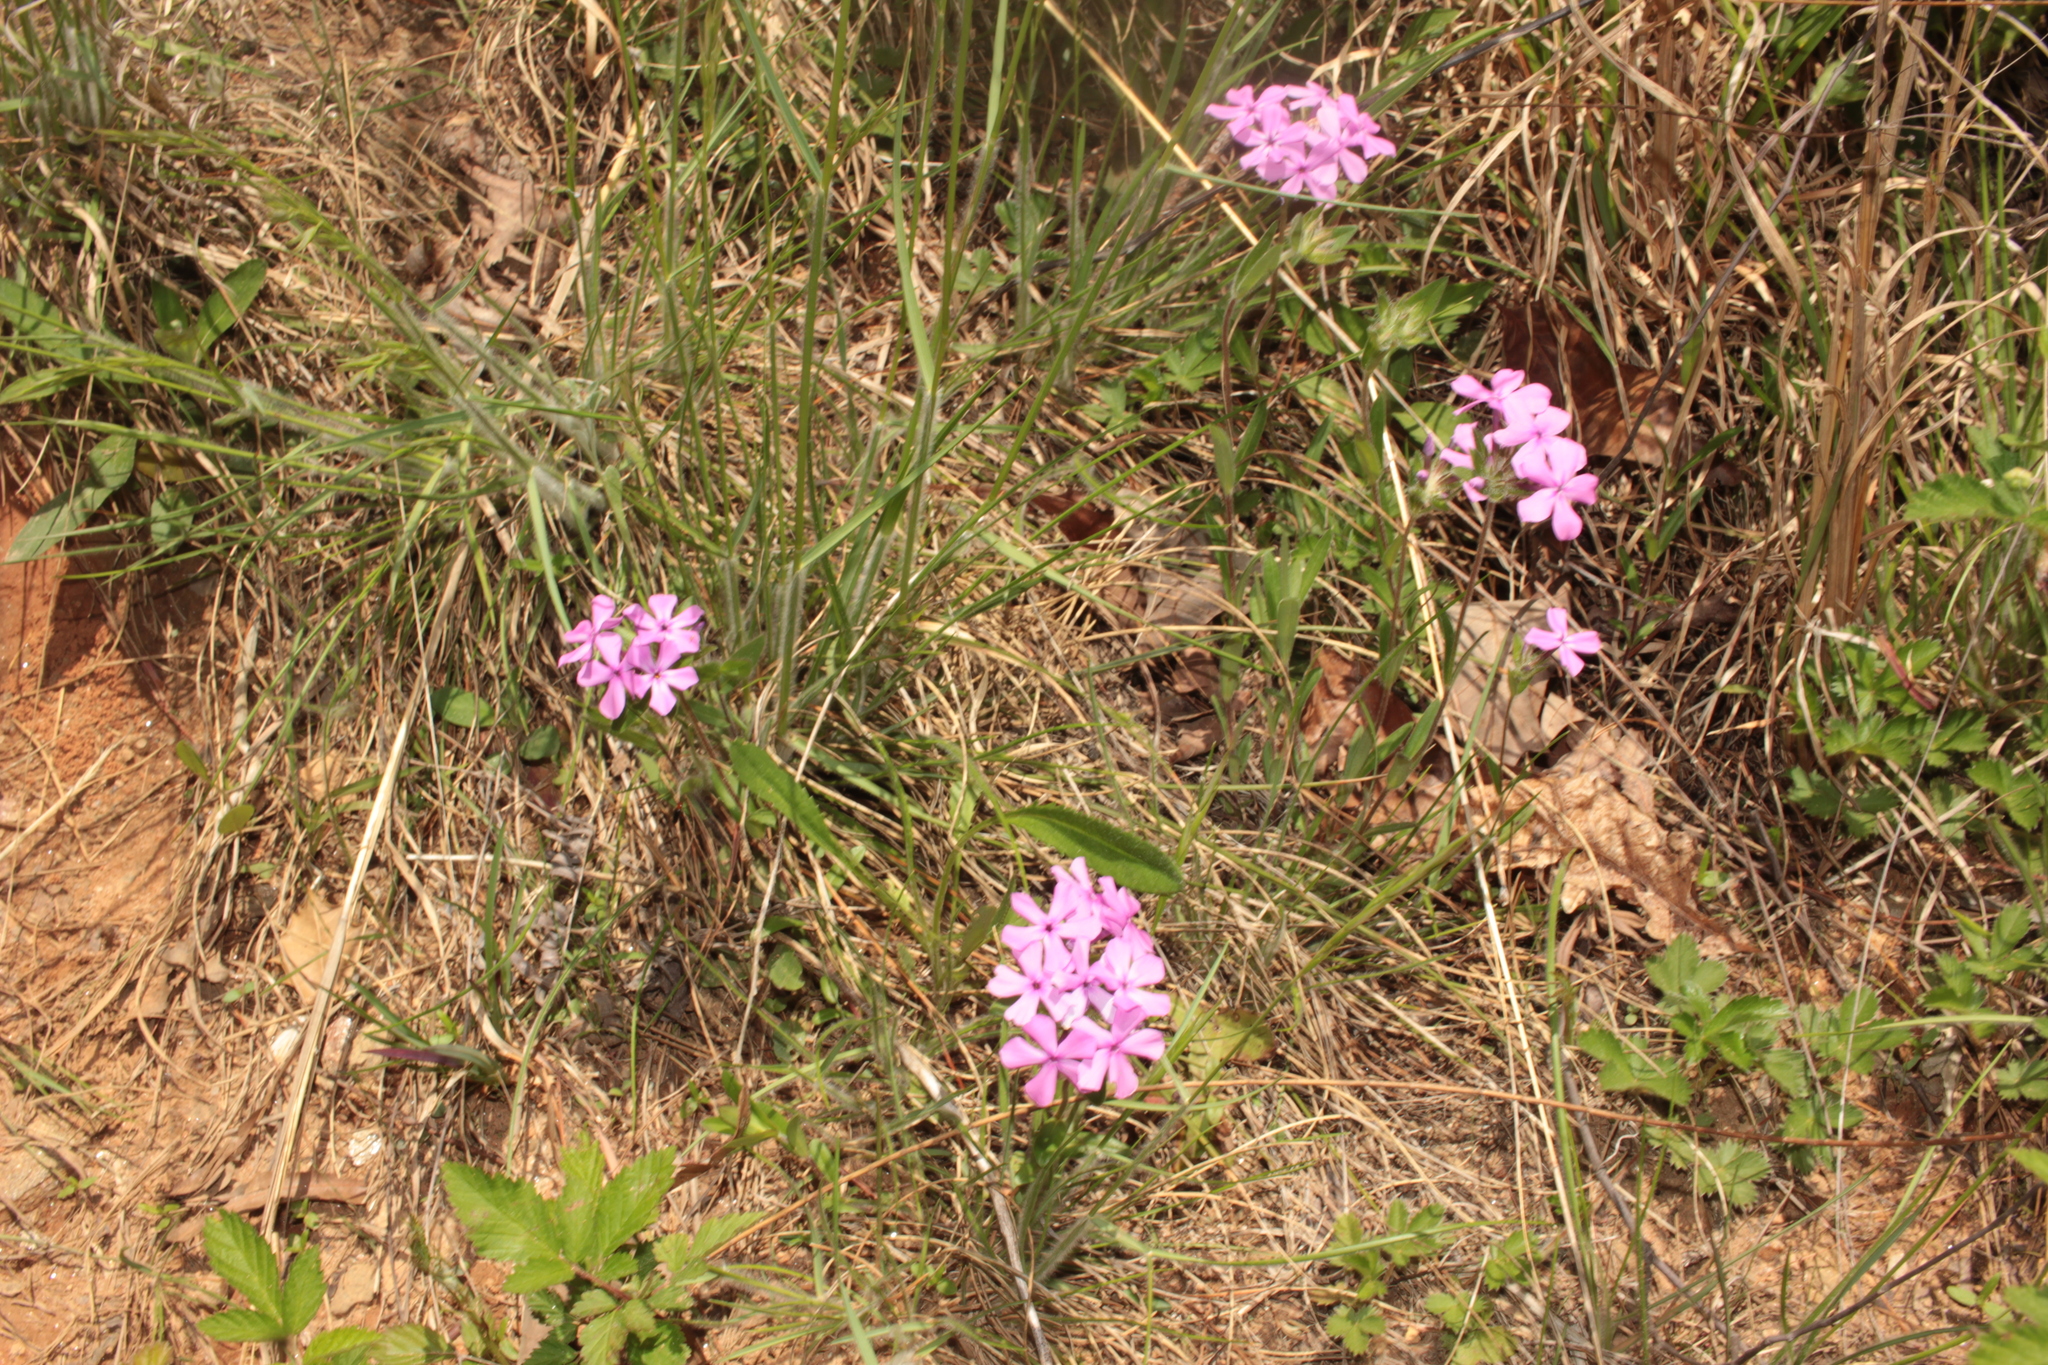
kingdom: Plantae
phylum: Tracheophyta
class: Magnoliopsida
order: Ericales
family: Polemoniaceae
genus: Phlox
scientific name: Phlox amoena
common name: Hairy phlox
